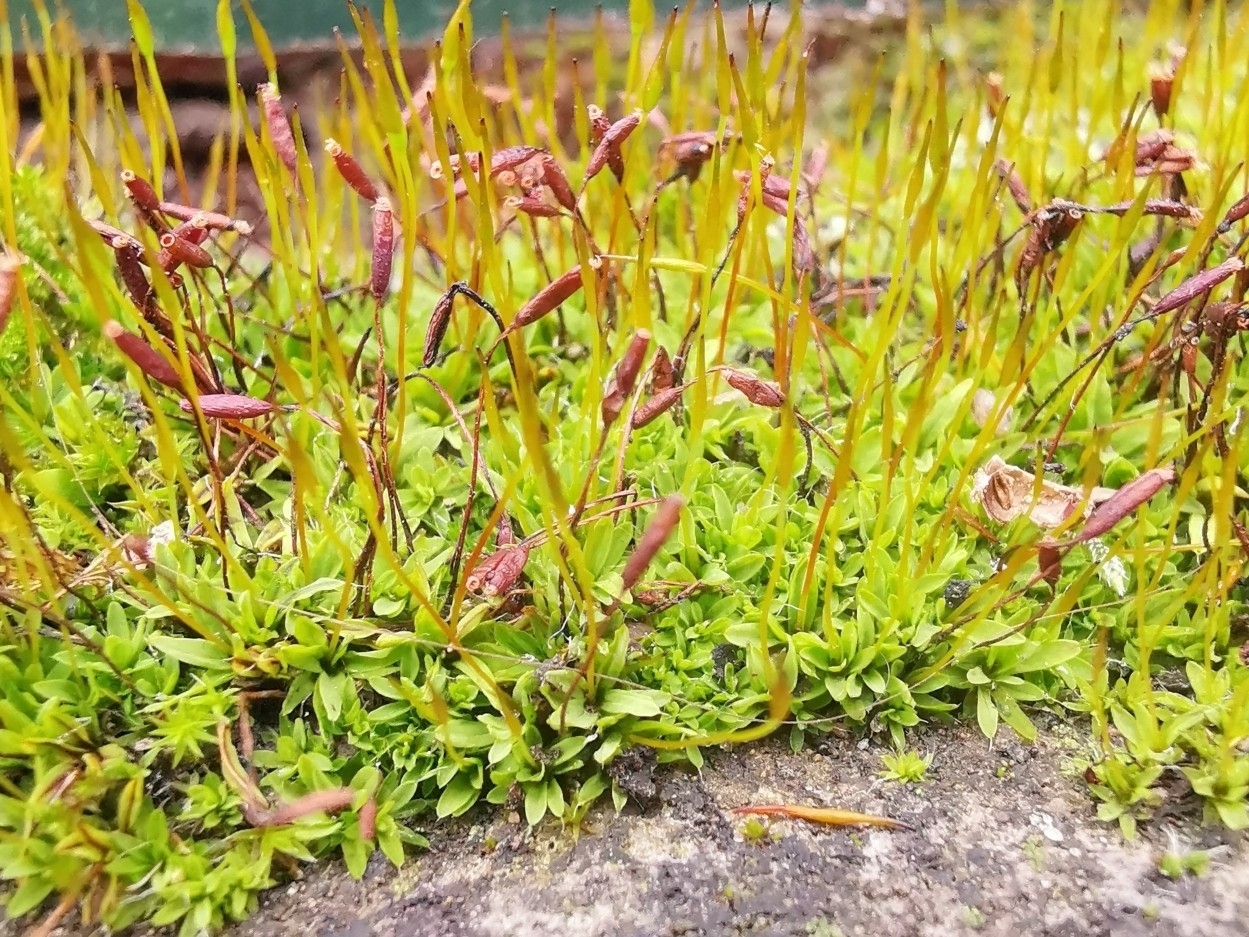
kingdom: Plantae
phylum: Bryophyta
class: Bryopsida
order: Pottiales
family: Pottiaceae
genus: Tortula
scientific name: Tortula muralis
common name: Wall screw-moss
